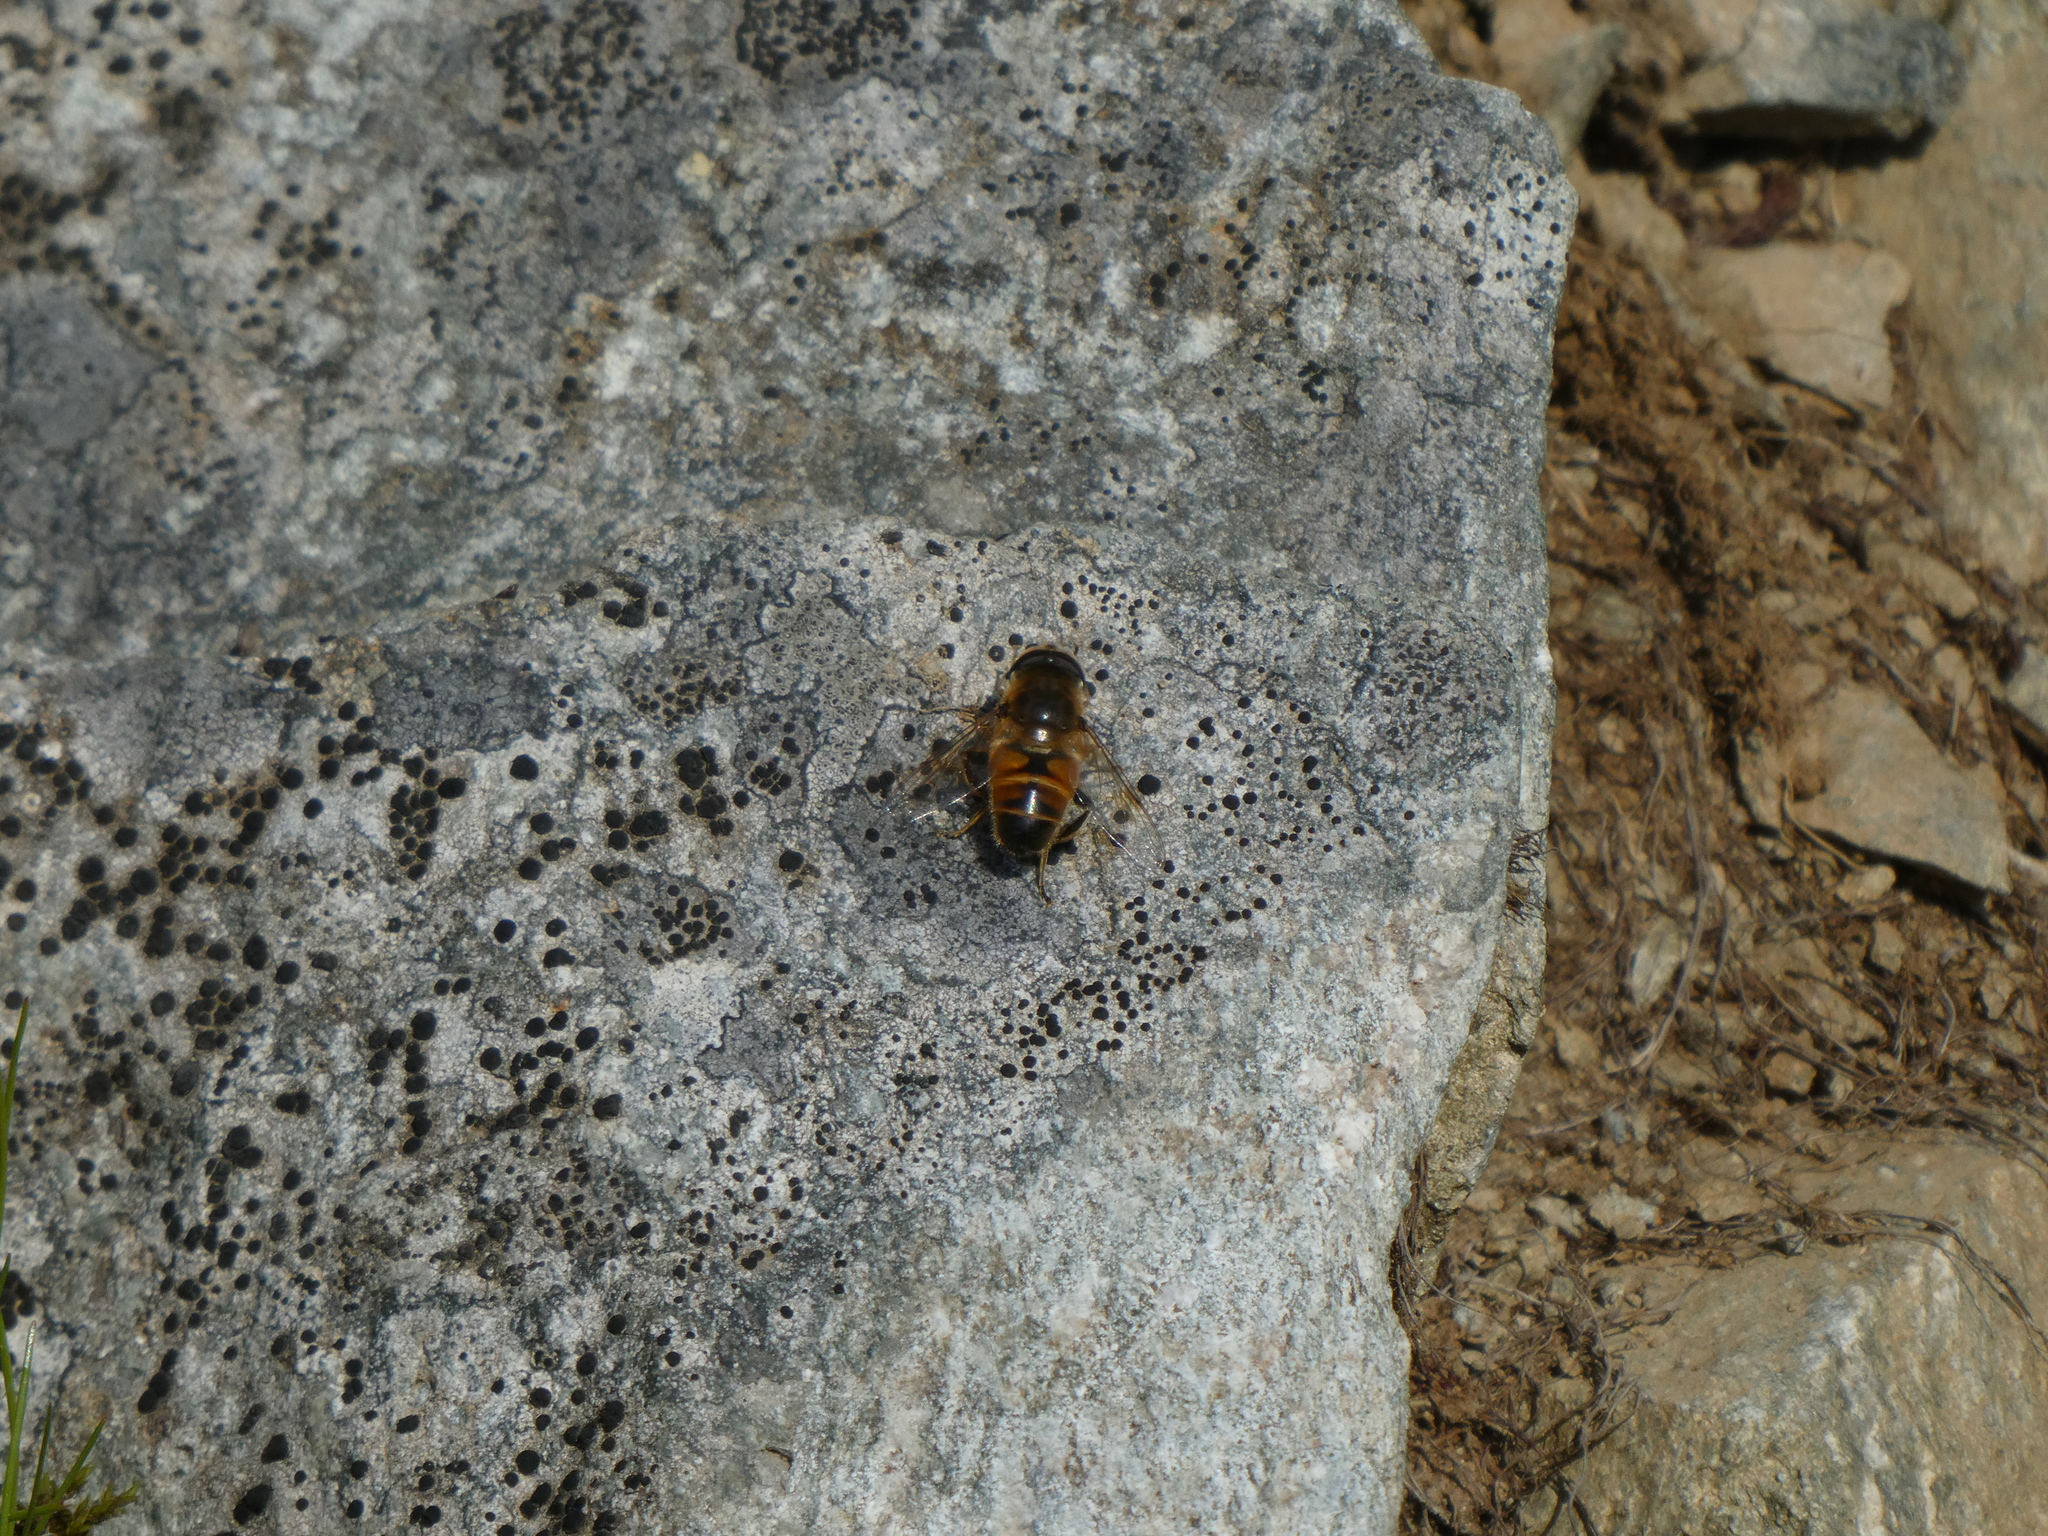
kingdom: Animalia
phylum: Arthropoda
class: Insecta
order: Diptera
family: Syrphidae
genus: Eristalis
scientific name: Eristalis tenax
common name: Drone fly
